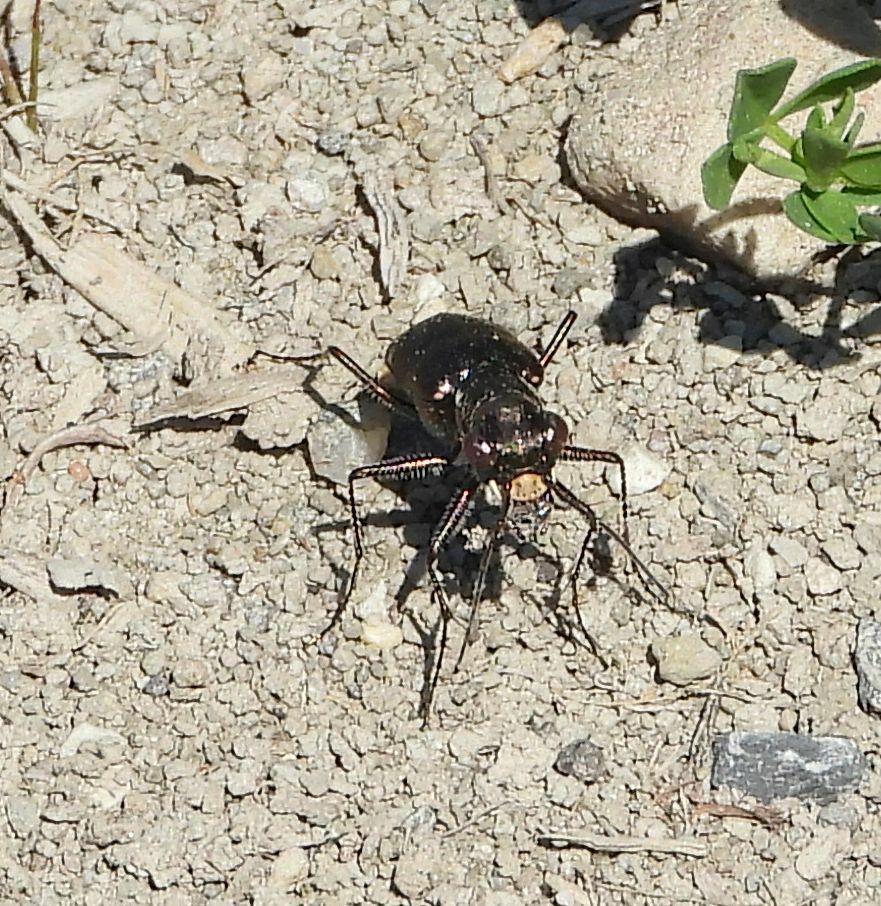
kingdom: Animalia
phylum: Arthropoda
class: Insecta
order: Coleoptera
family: Carabidae
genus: Cicindela
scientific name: Cicindela punctulata
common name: Punctured tiger beetle
